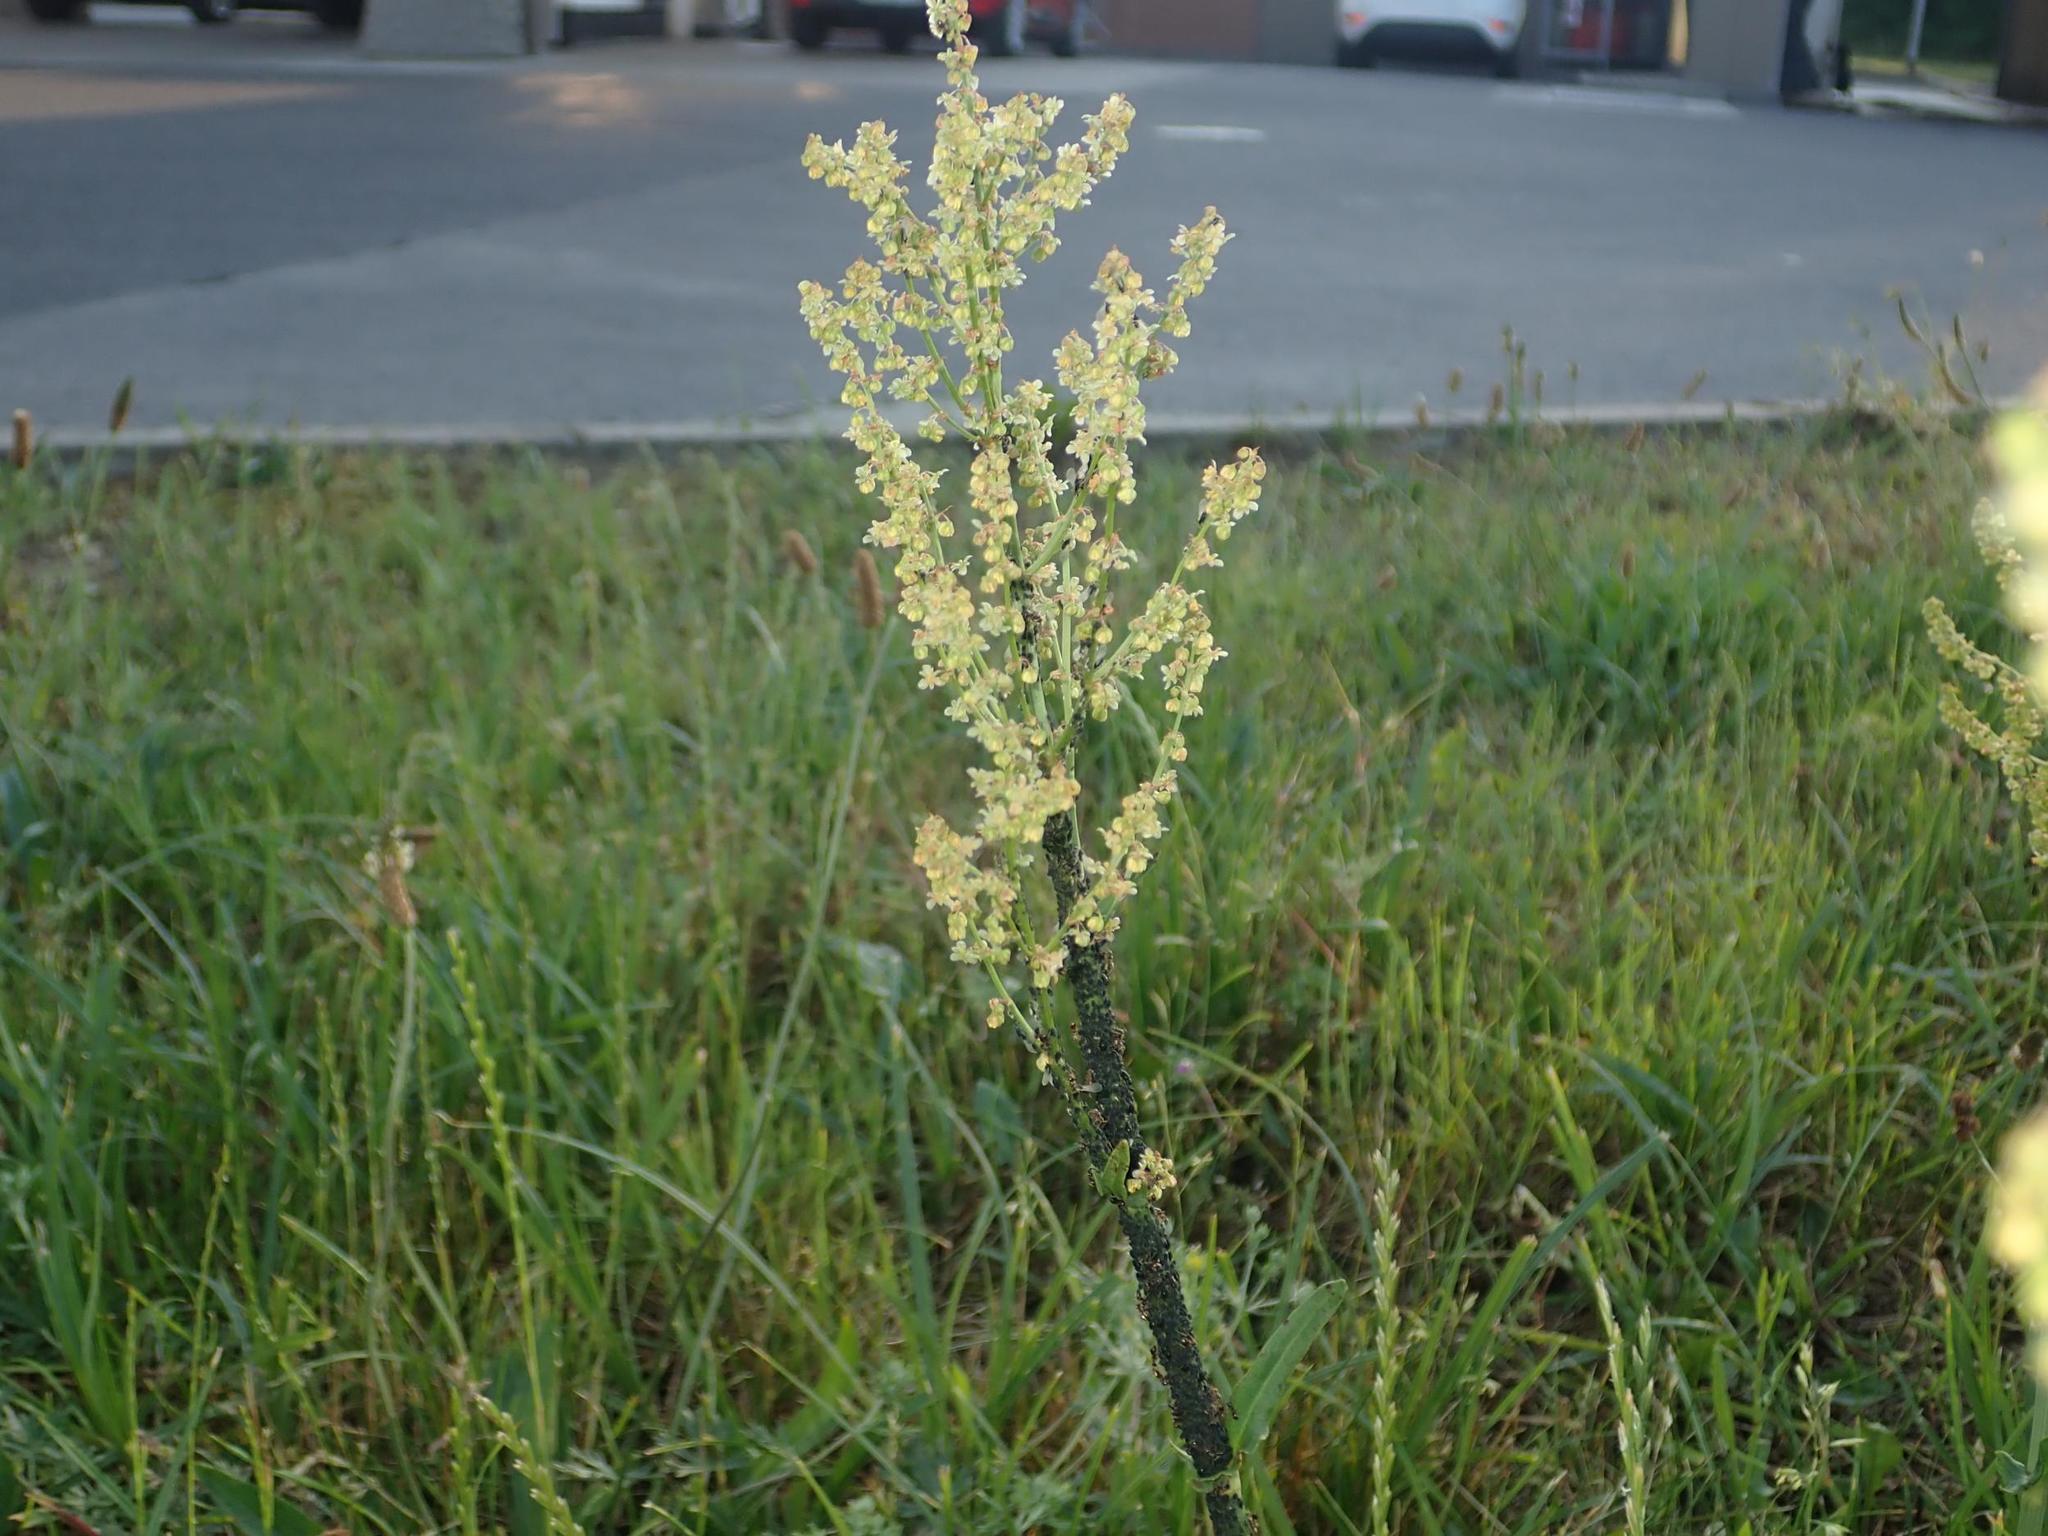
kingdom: Plantae
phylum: Tracheophyta
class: Liliopsida
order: Poales
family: Poaceae
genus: Lolium
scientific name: Lolium perenne
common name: Perennial ryegrass
